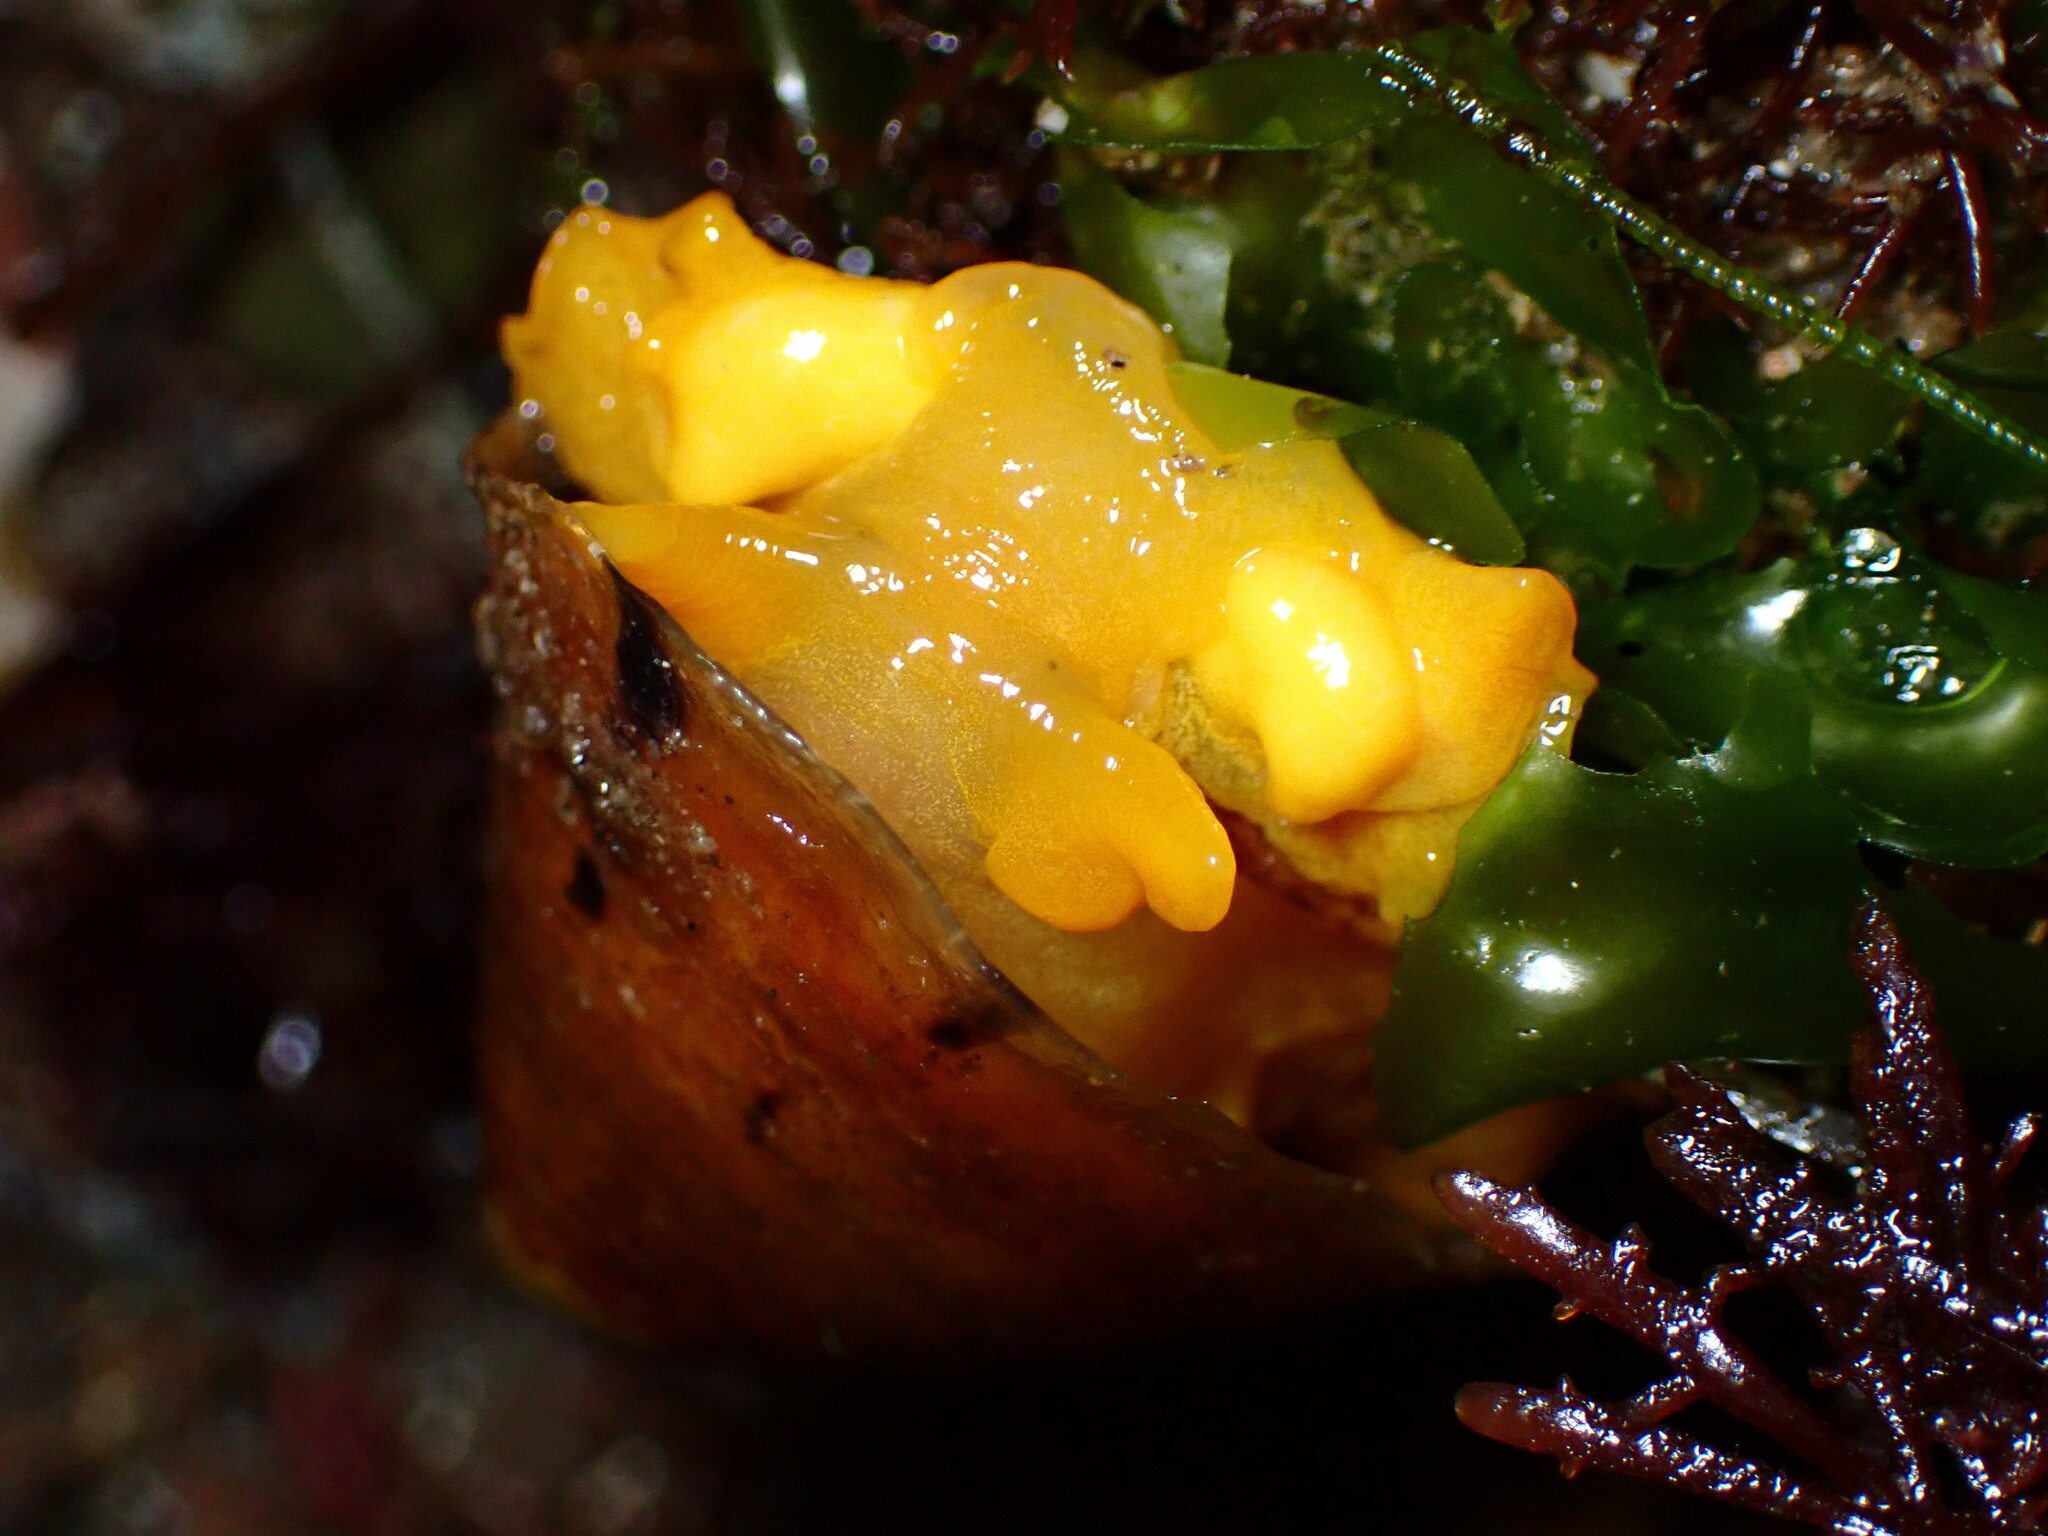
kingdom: Animalia
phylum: Mollusca
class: Gastropoda
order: Umbraculida
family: Tylodinidae
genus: Tylodina
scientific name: Tylodina fungina
